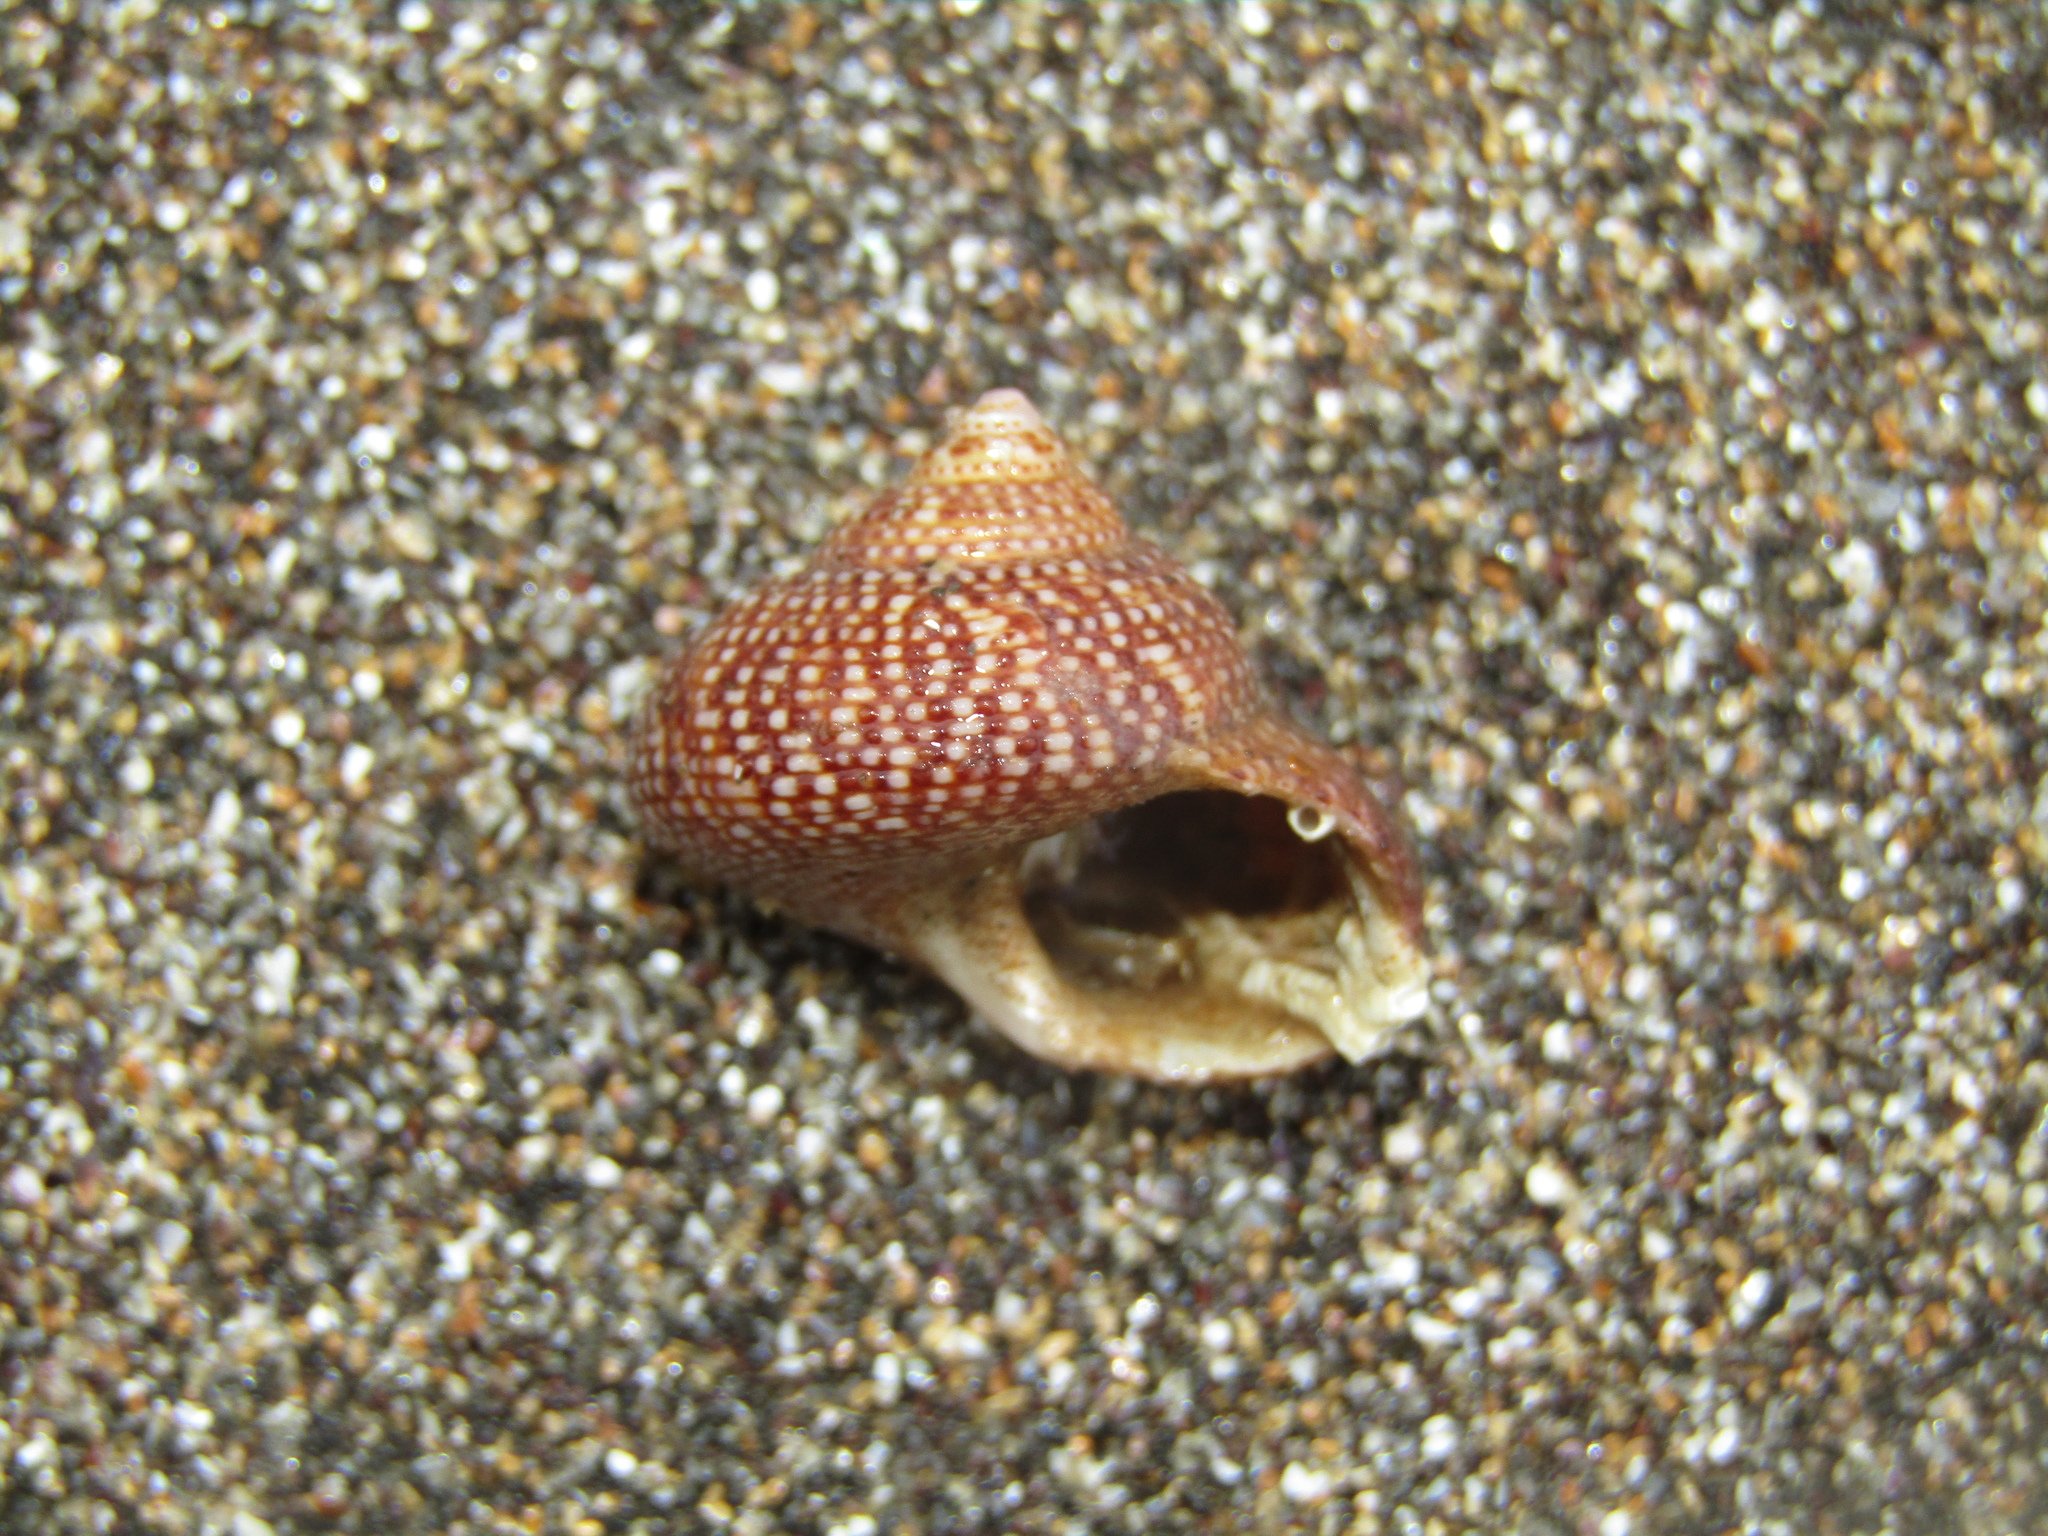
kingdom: Animalia
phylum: Mollusca
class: Gastropoda
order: Trochida
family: Calliostomatidae
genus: Maurea
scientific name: Maurea punctulata
